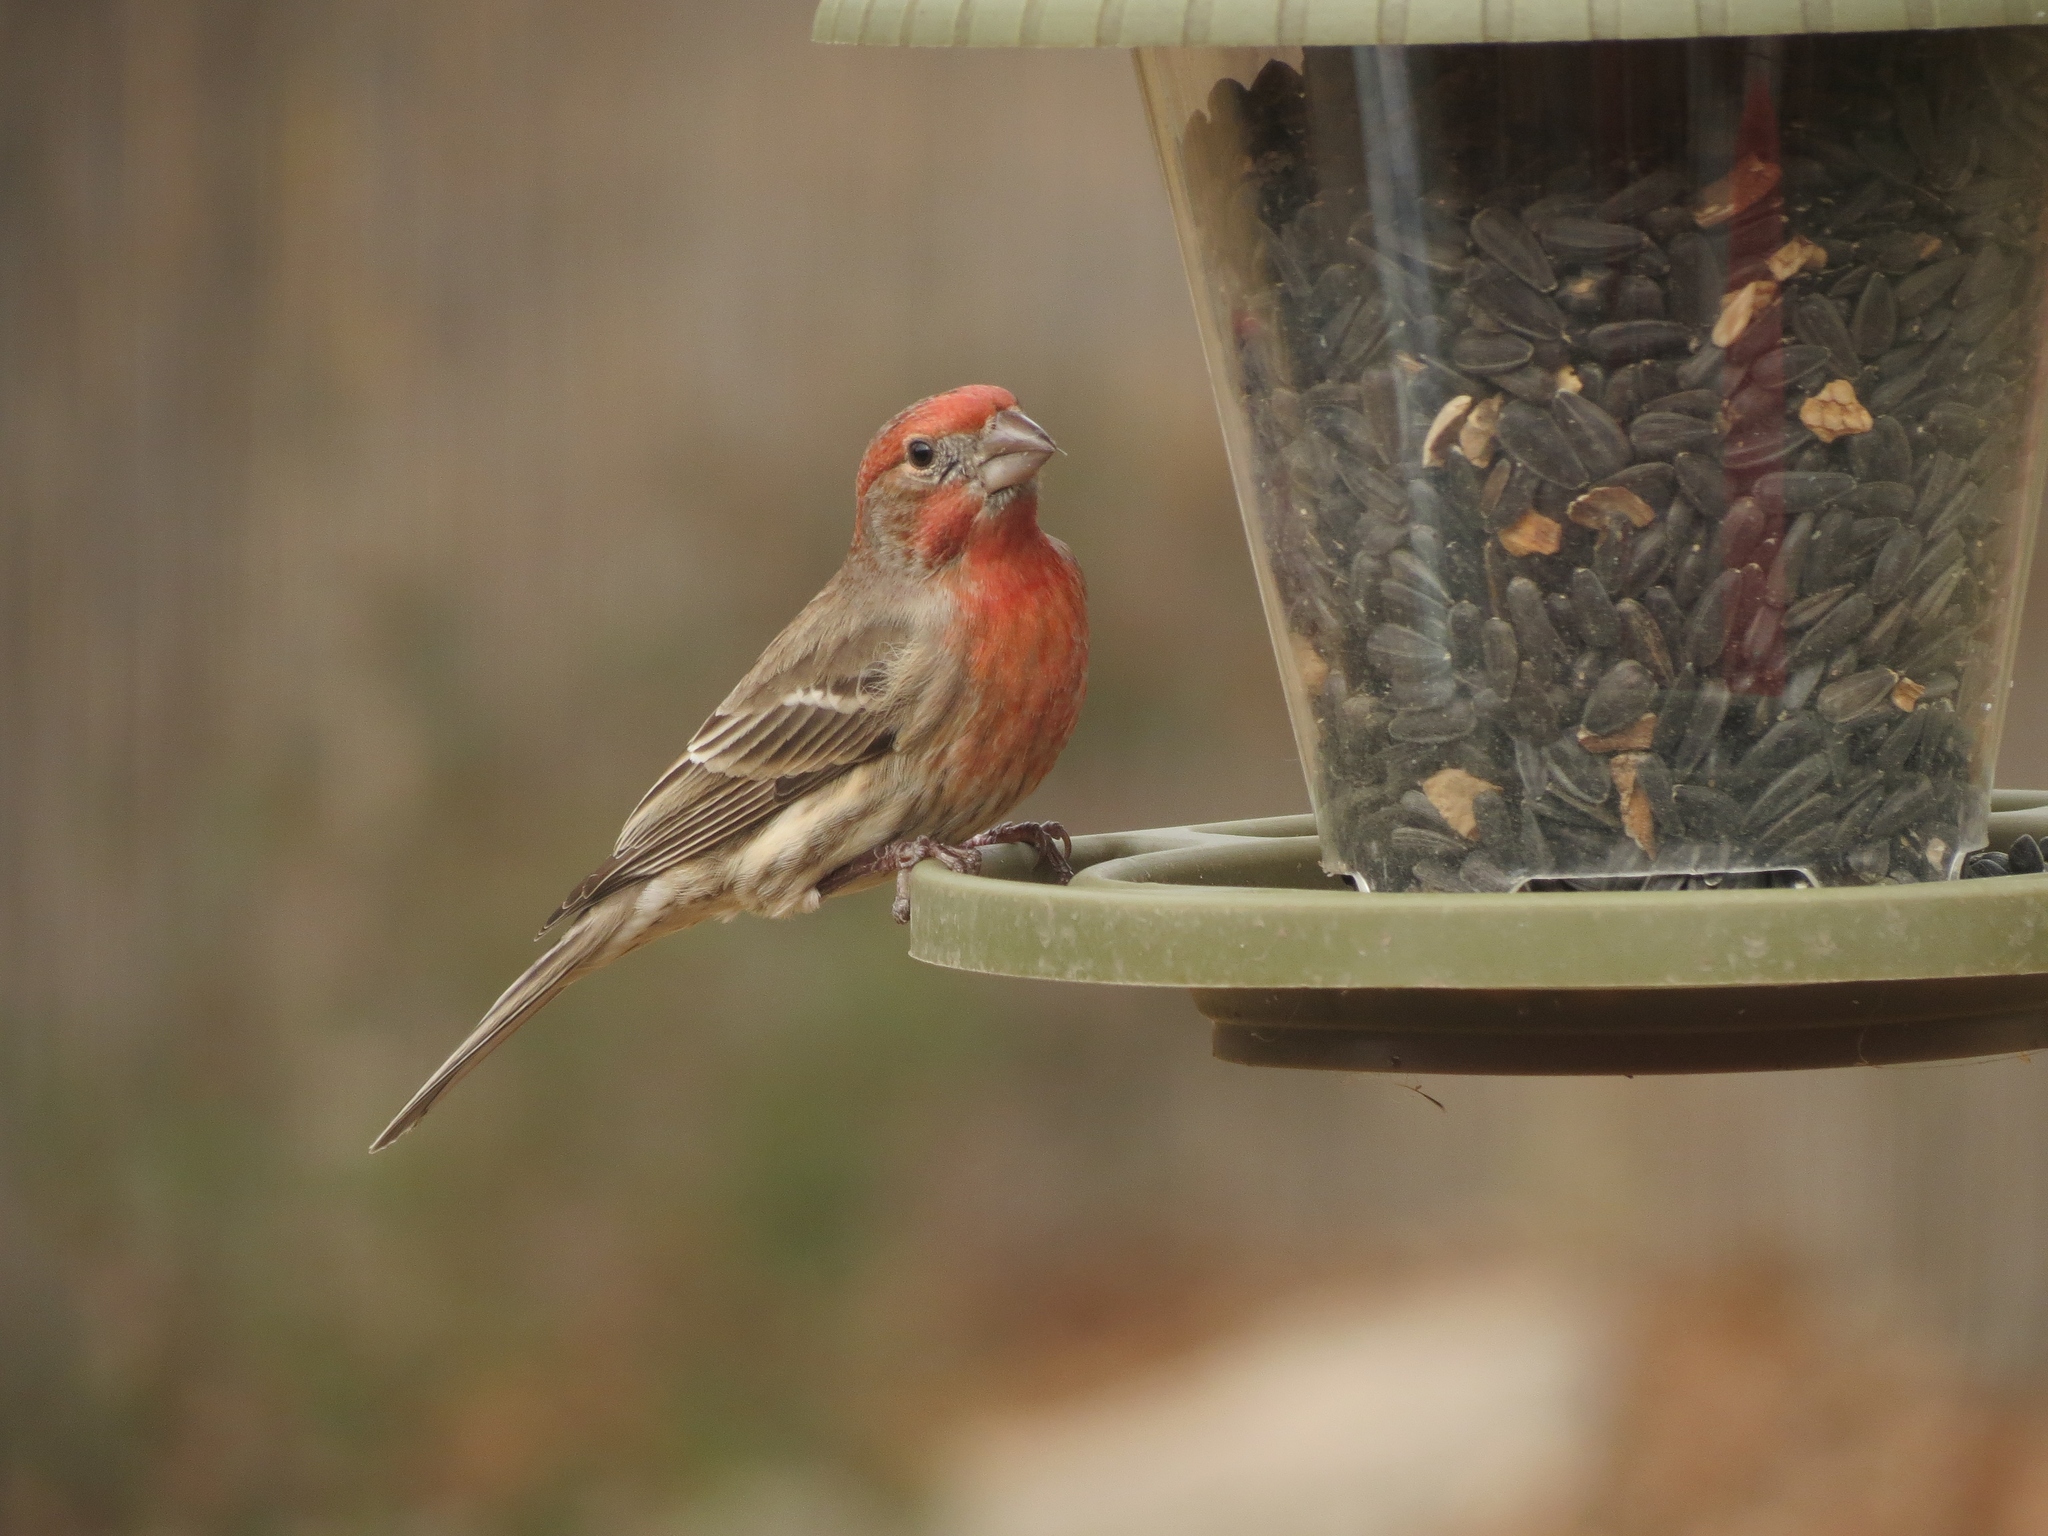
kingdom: Animalia
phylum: Chordata
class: Aves
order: Passeriformes
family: Fringillidae
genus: Haemorhous
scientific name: Haemorhous mexicanus
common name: House finch
